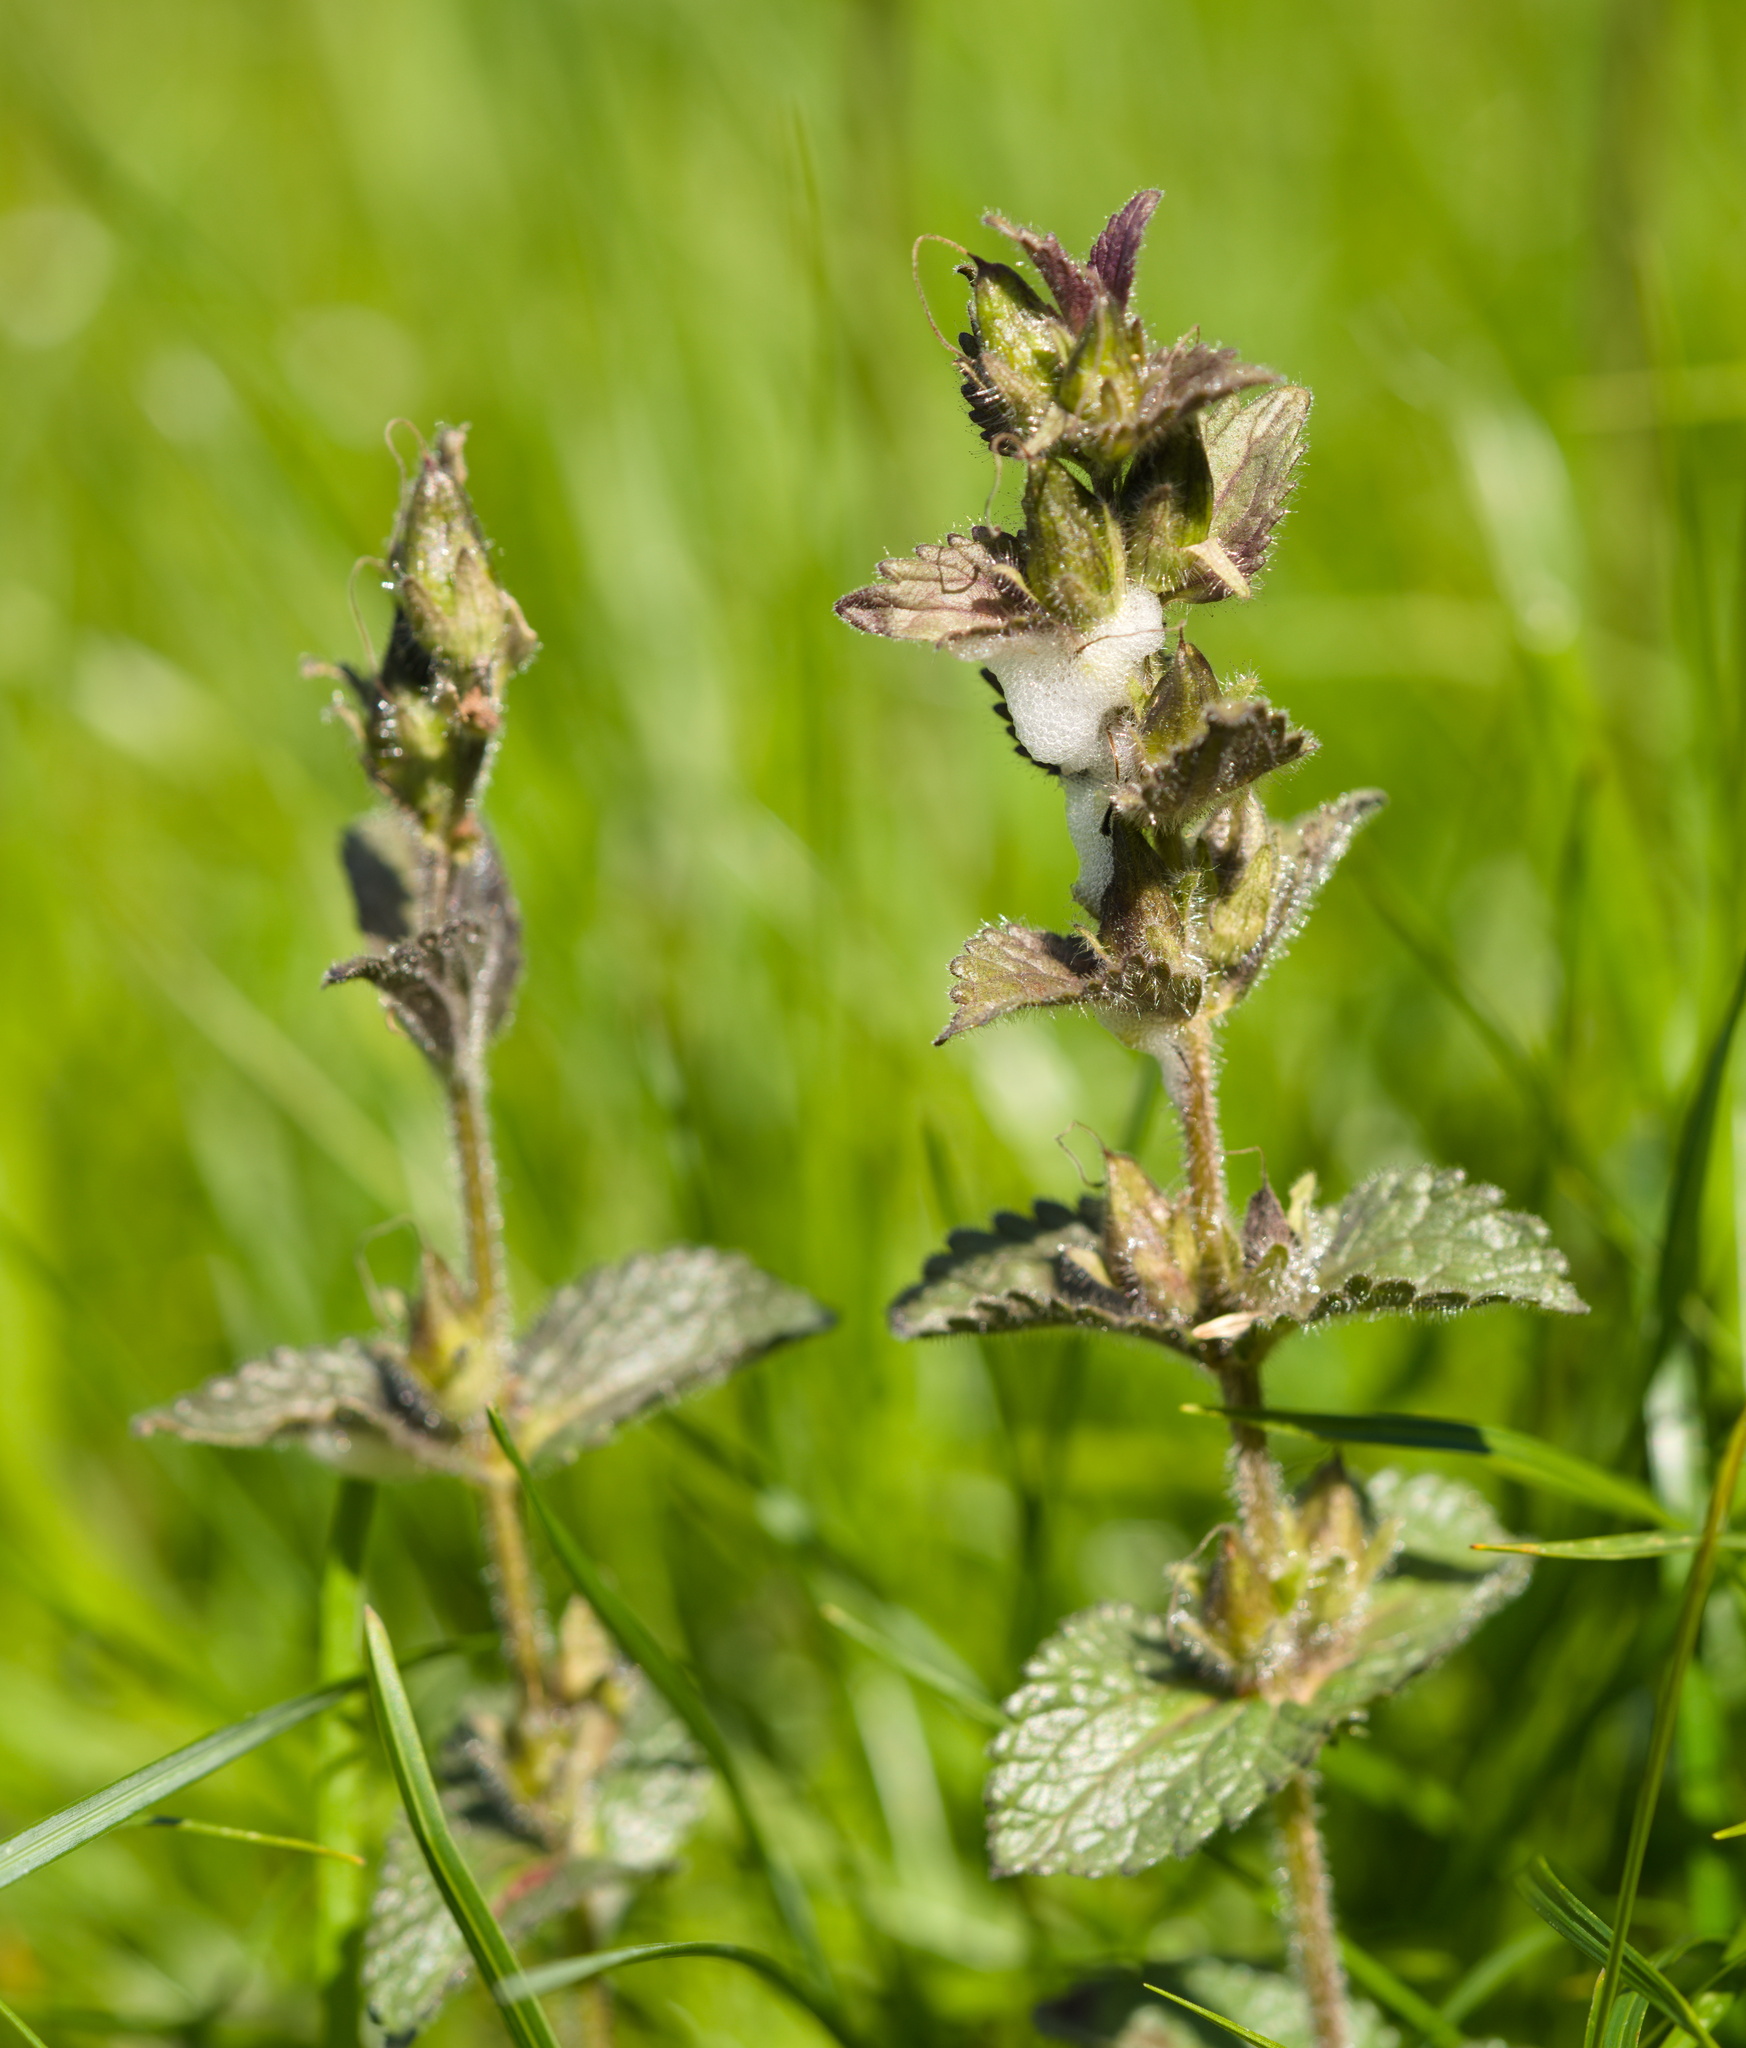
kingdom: Plantae
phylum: Tracheophyta
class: Magnoliopsida
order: Lamiales
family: Orobanchaceae
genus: Bartsia
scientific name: Bartsia alpina
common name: Alpine bartsia
